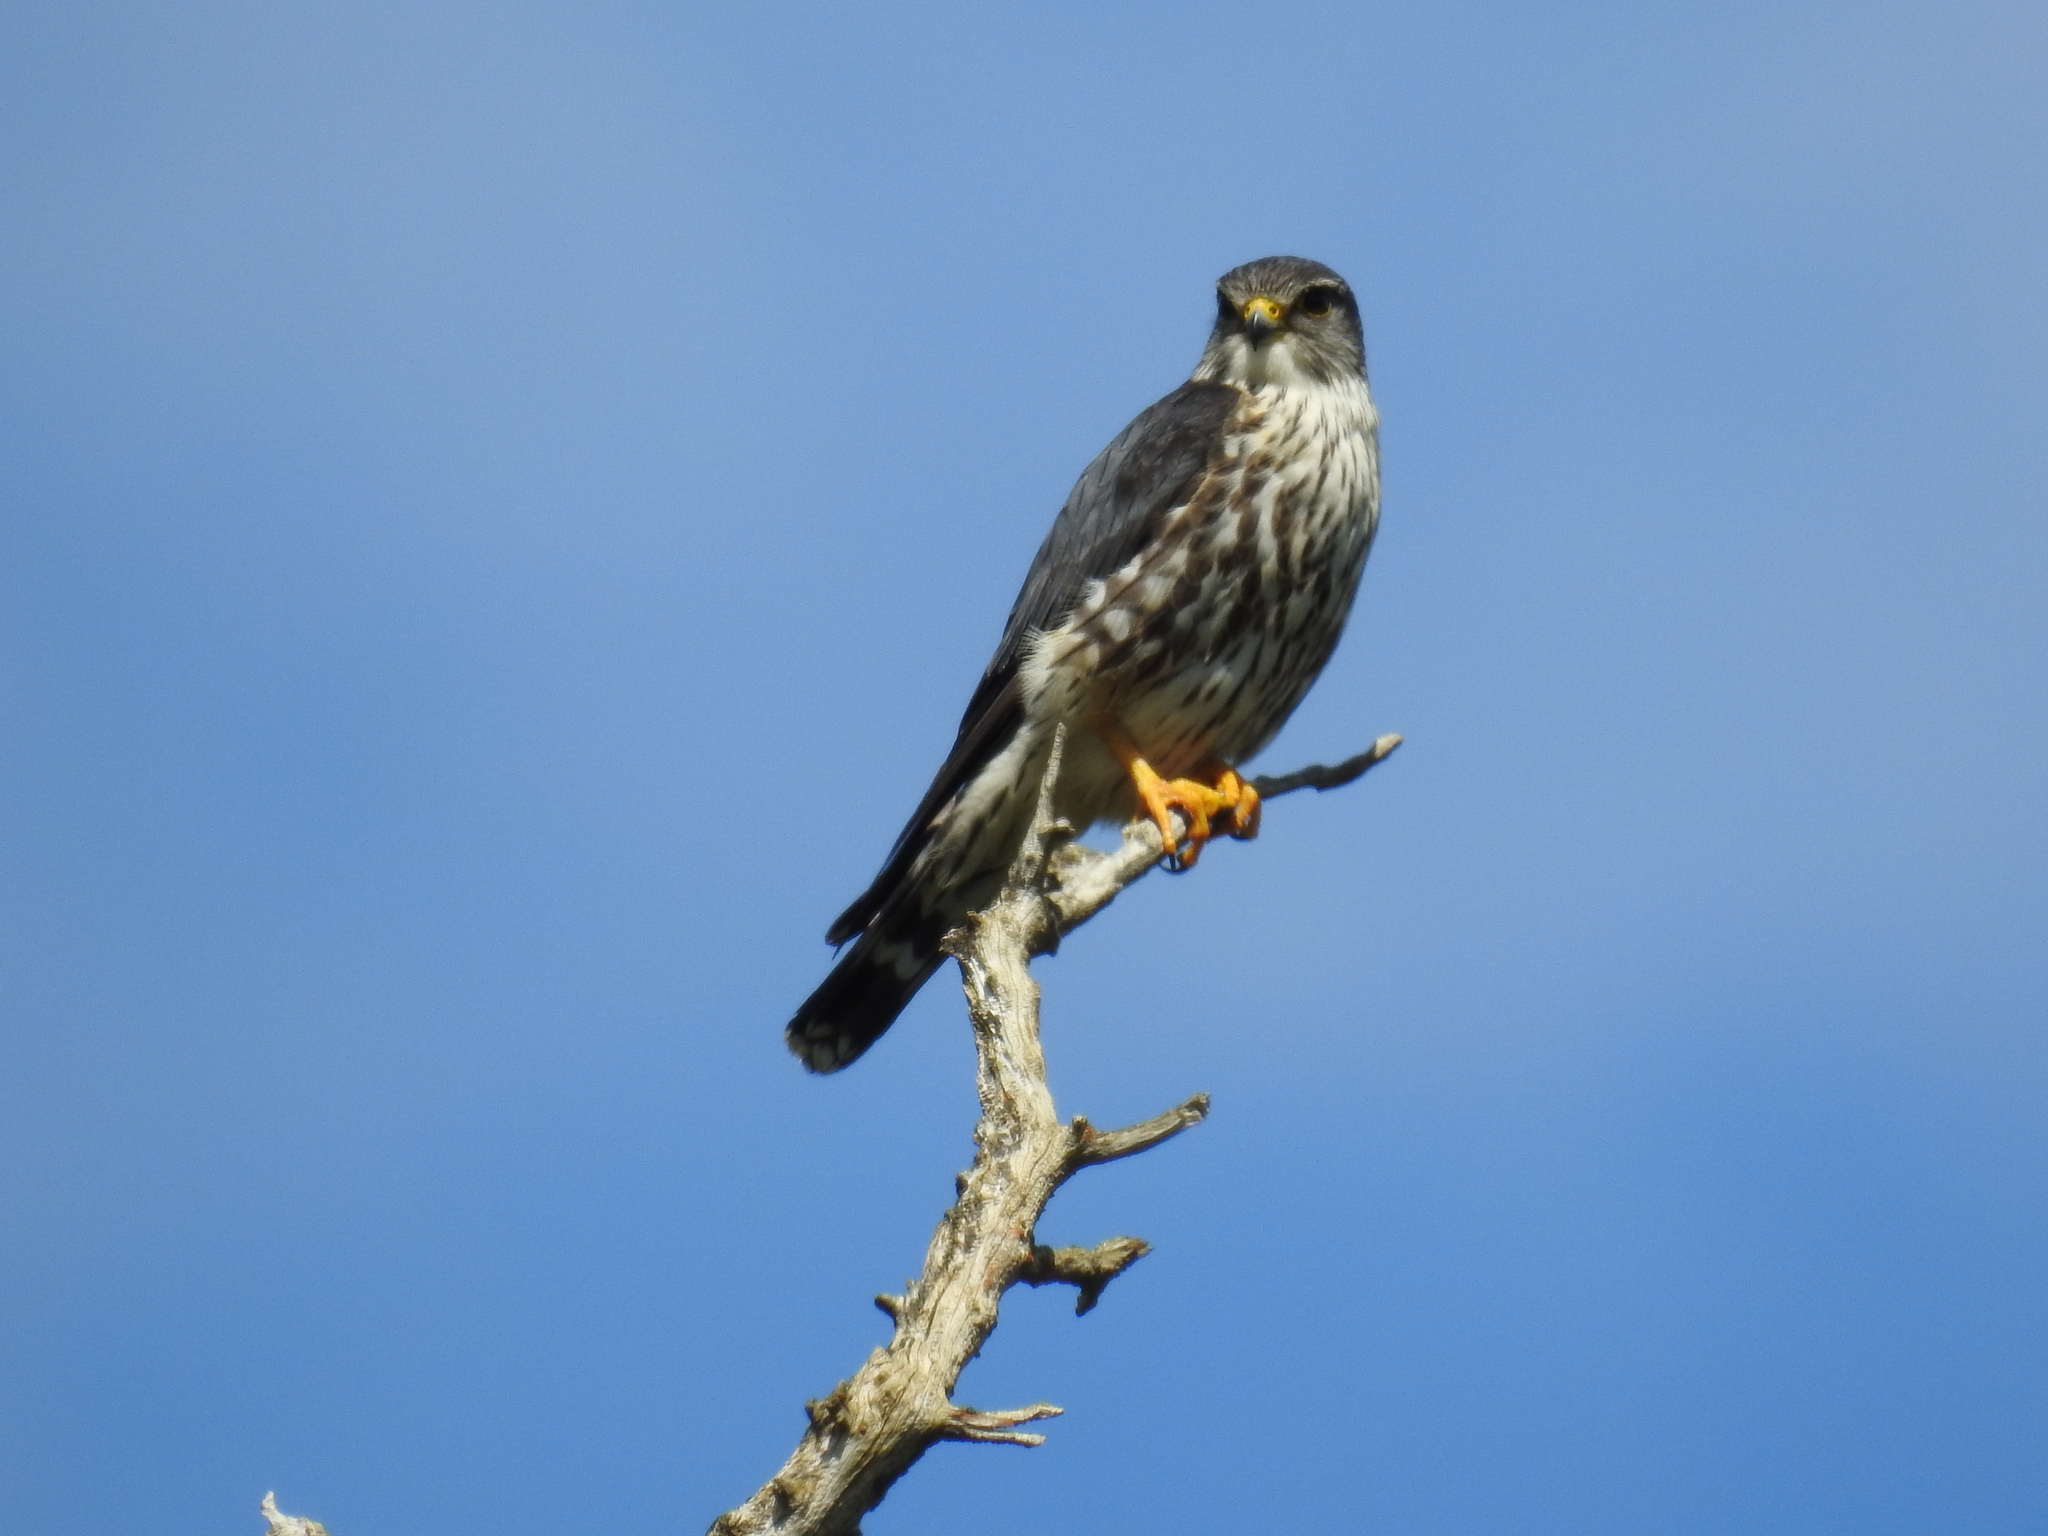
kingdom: Animalia
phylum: Chordata
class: Aves
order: Falconiformes
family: Falconidae
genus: Falco
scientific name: Falco columbarius
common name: Merlin
